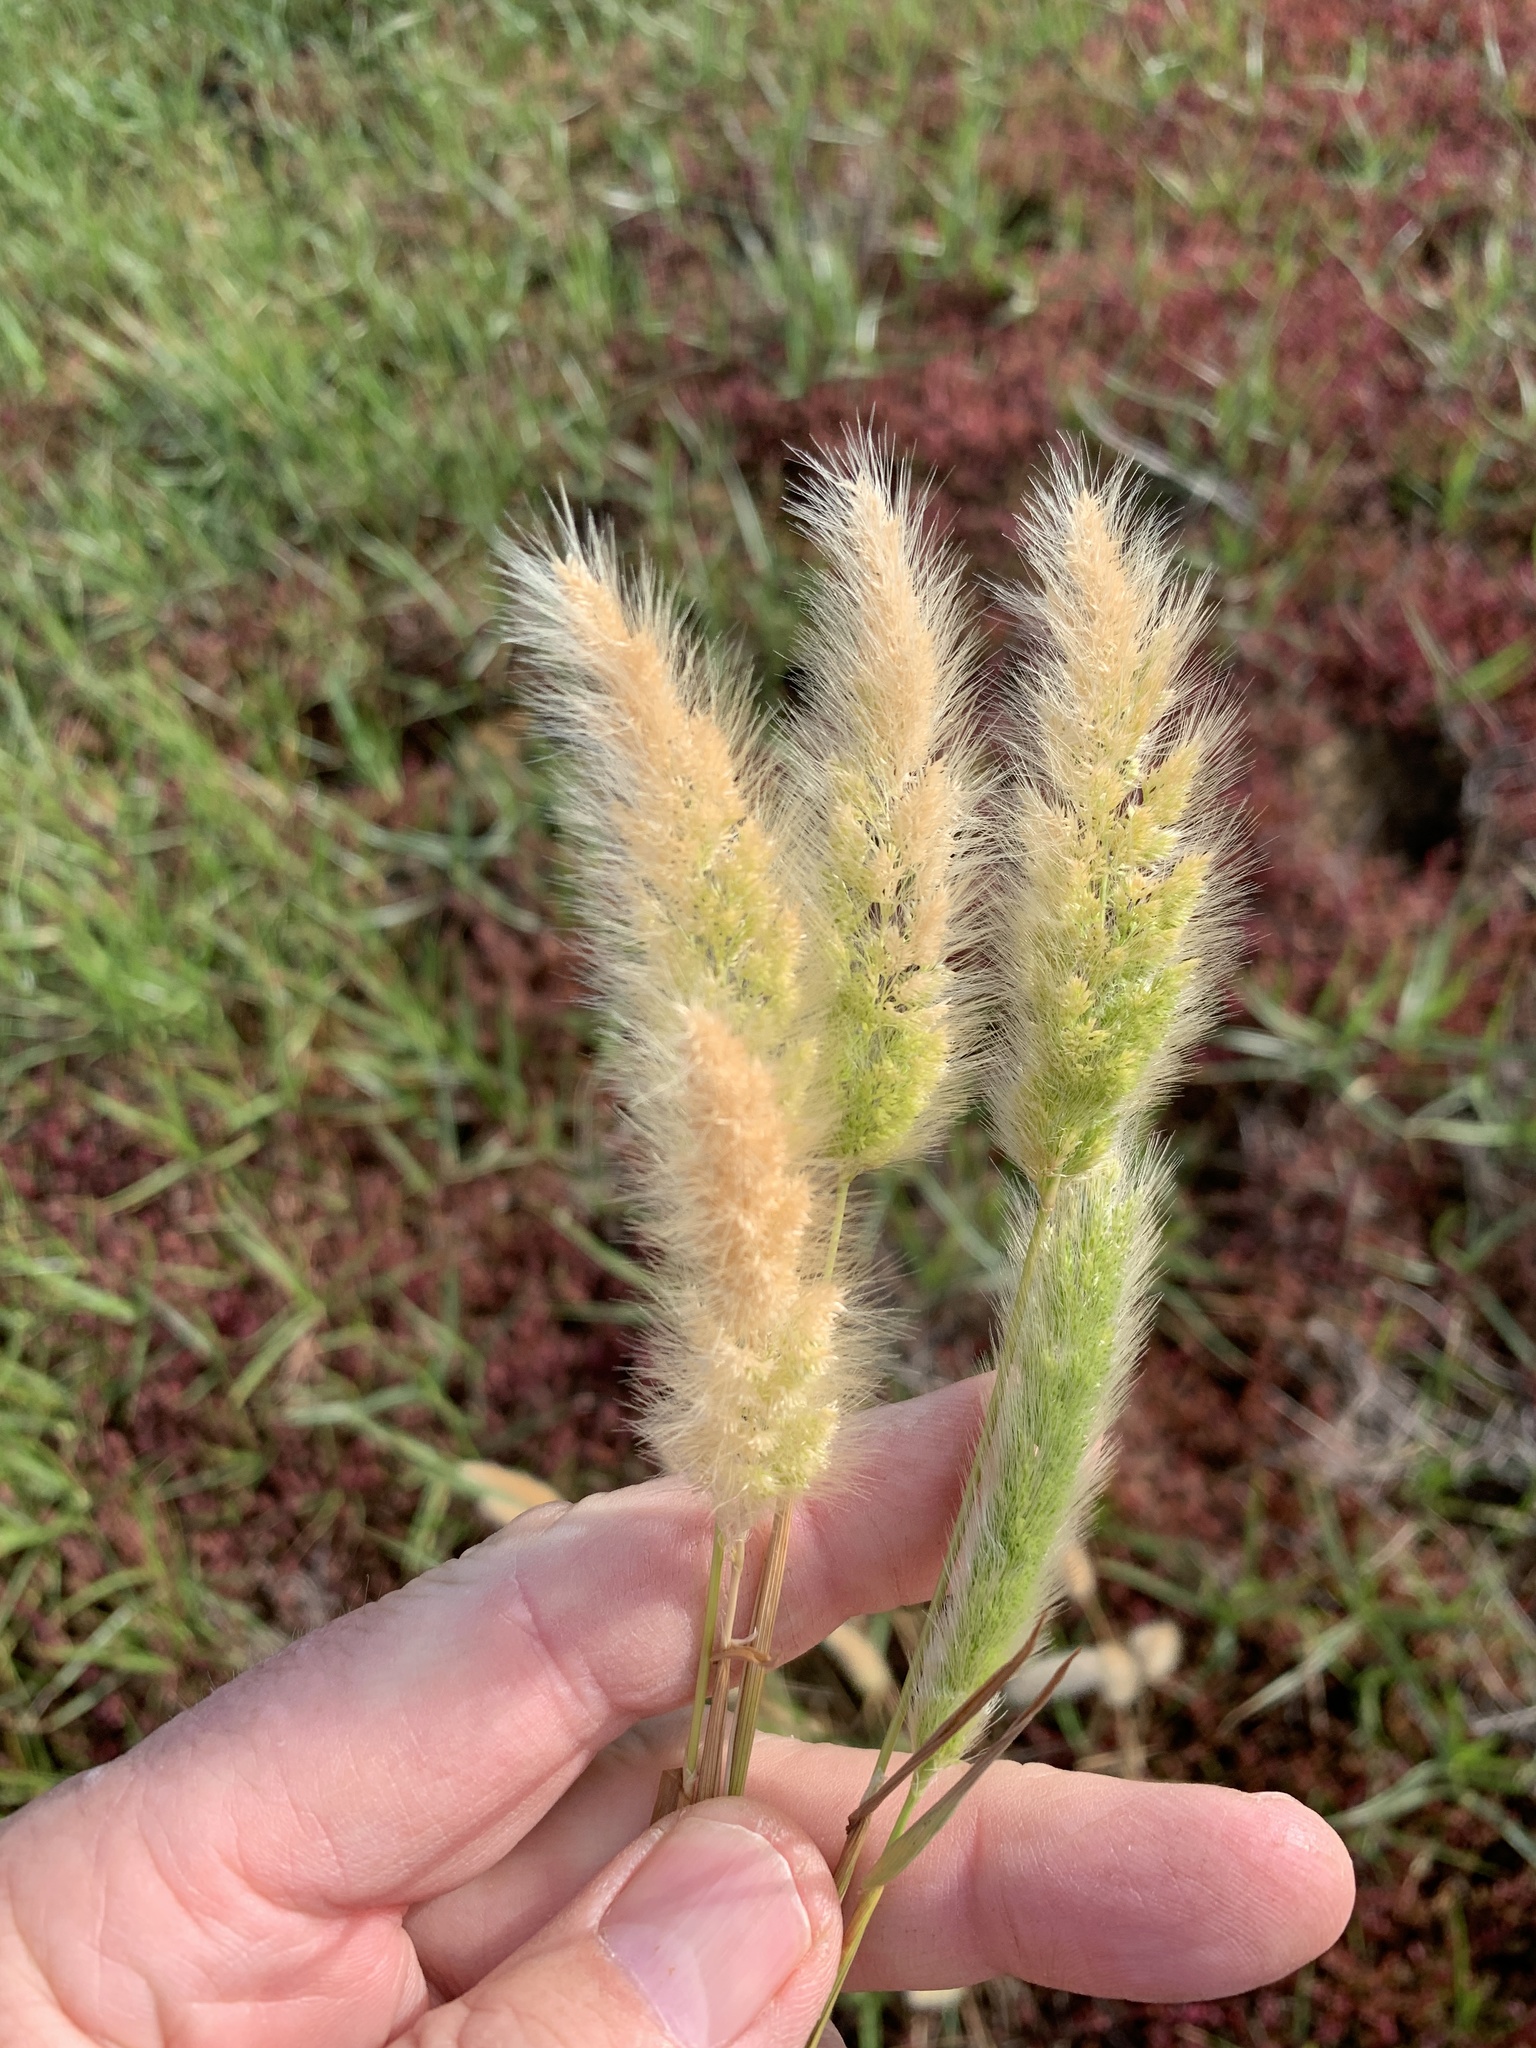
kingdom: Plantae
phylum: Tracheophyta
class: Liliopsida
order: Poales
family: Poaceae
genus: Polypogon
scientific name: Polypogon monspeliensis
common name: Annual rabbitsfoot grass
